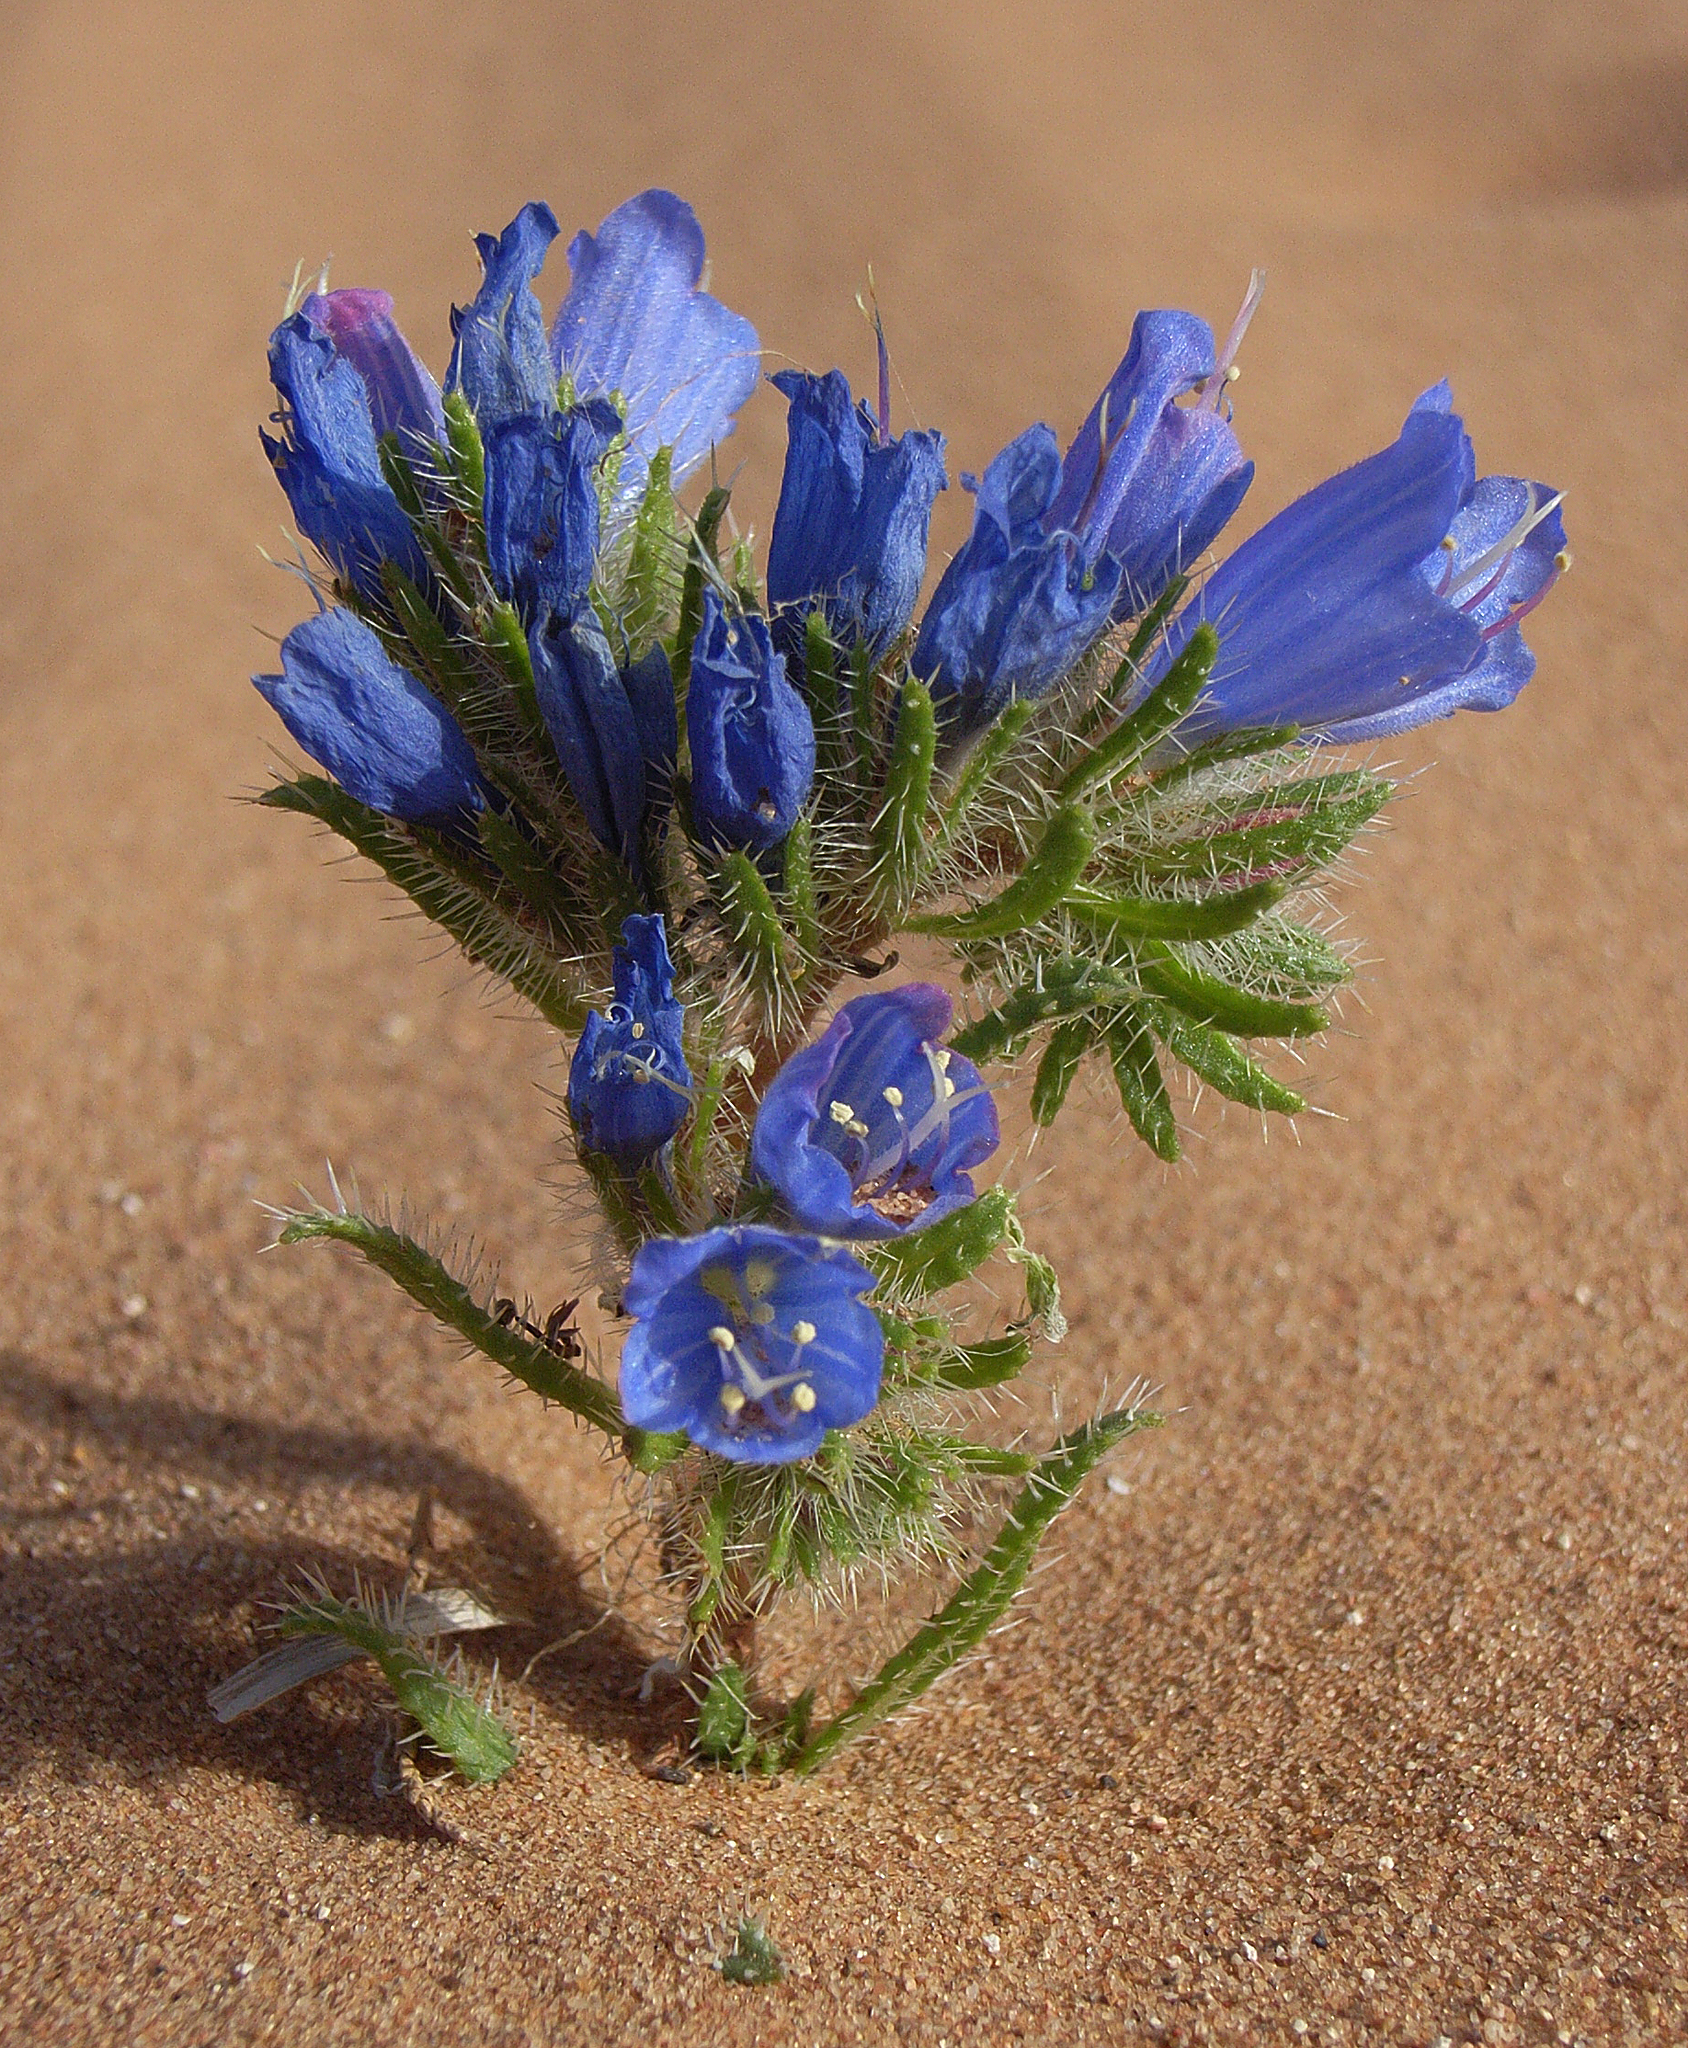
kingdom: Plantae
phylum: Tracheophyta
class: Magnoliopsida
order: Boraginales
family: Boraginaceae
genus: Echium
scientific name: Echium trygorrhizum
